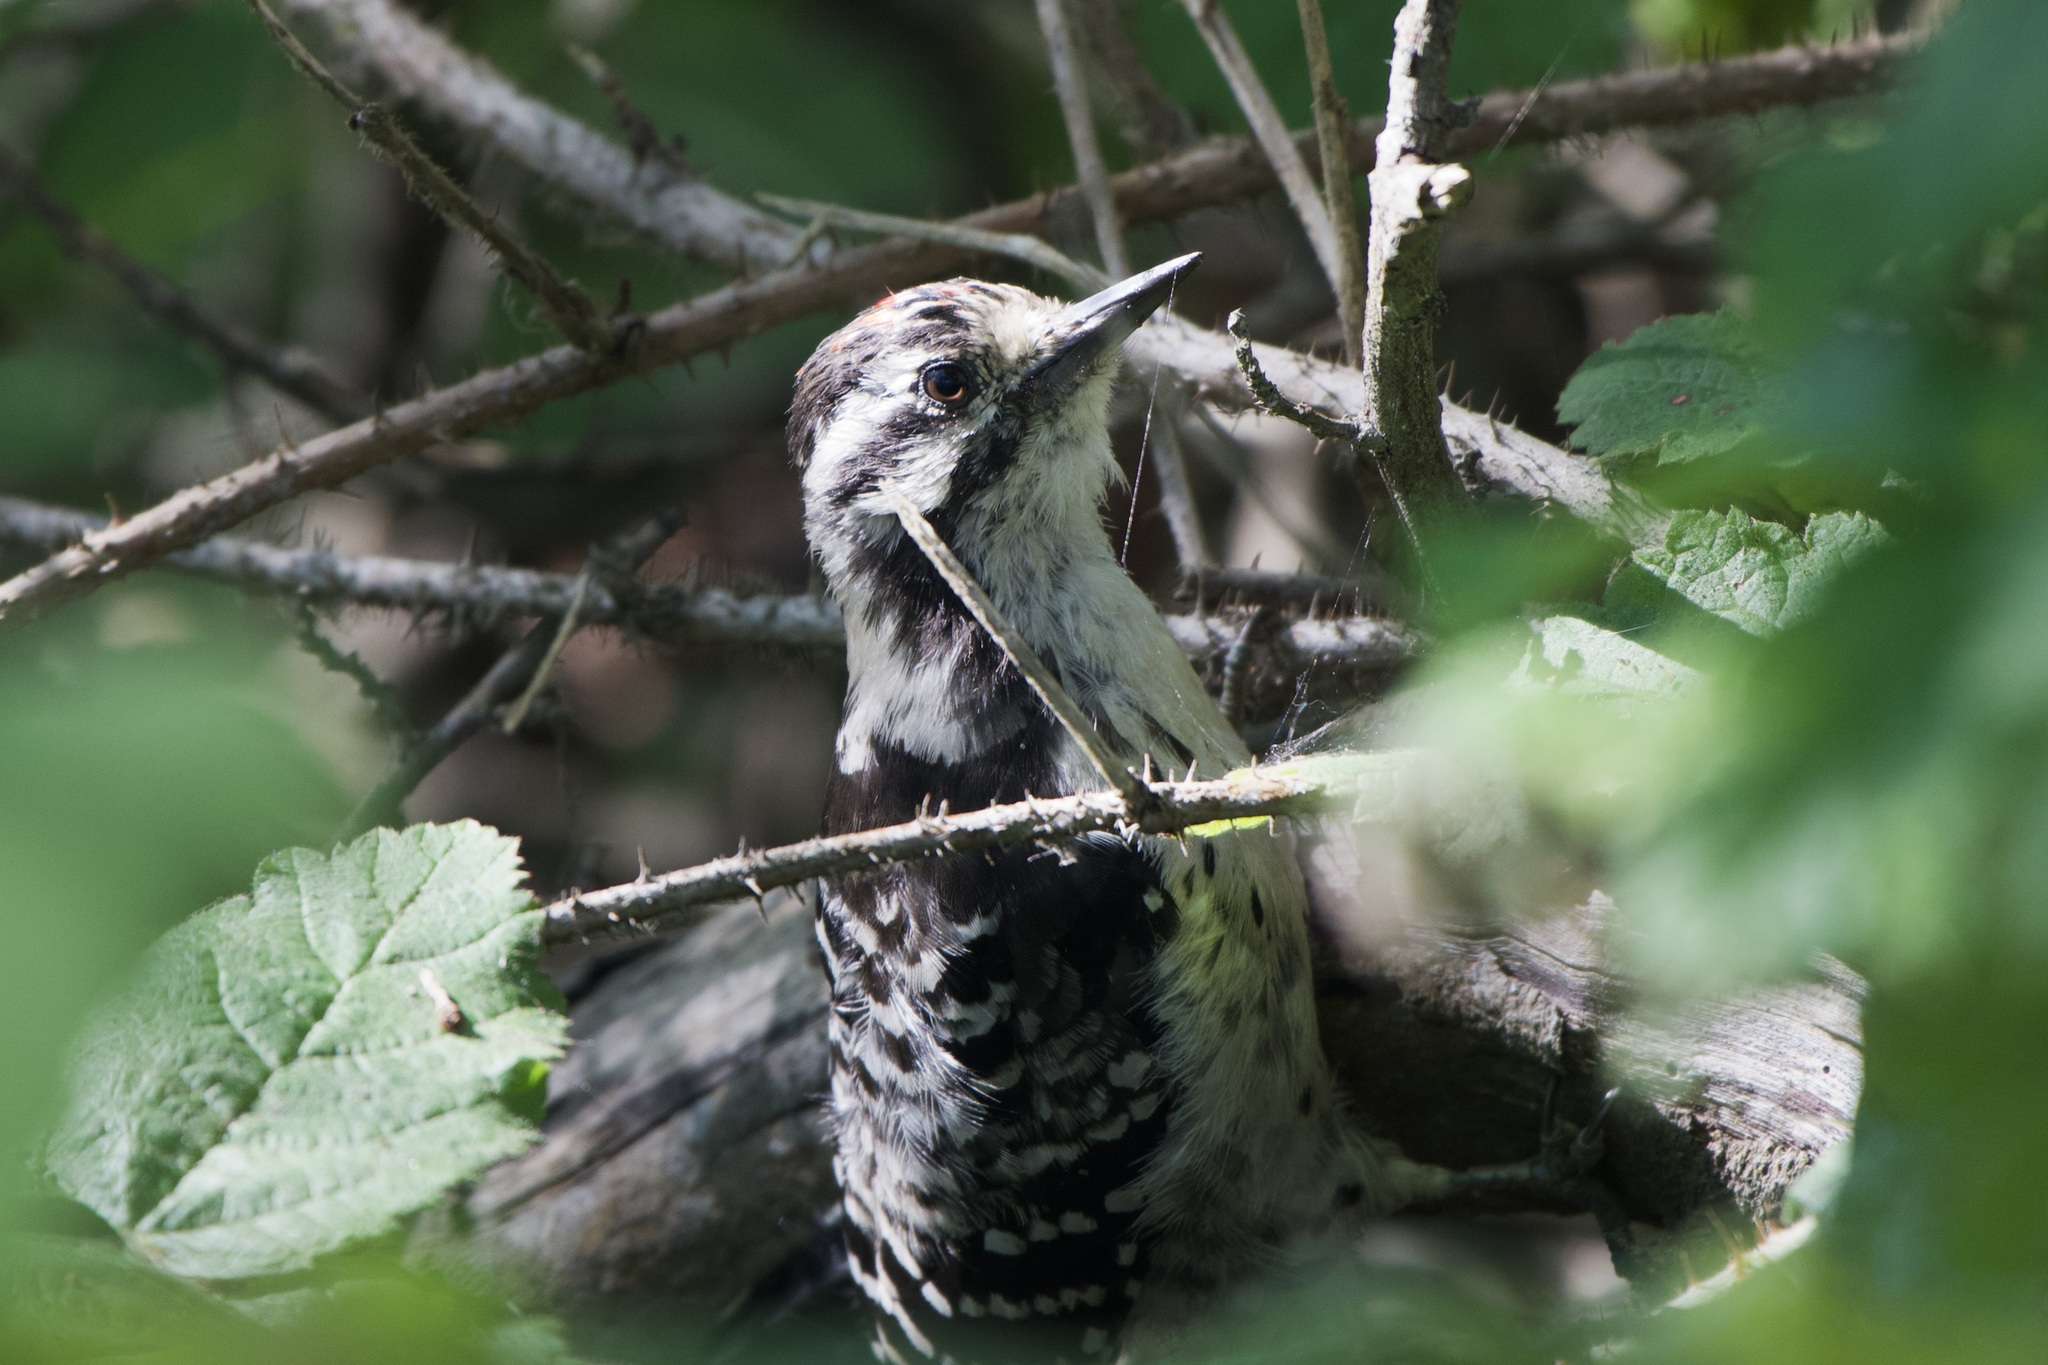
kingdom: Animalia
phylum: Chordata
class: Aves
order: Piciformes
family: Picidae
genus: Dryobates
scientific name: Dryobates nuttallii
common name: Nuttall's woodpecker
